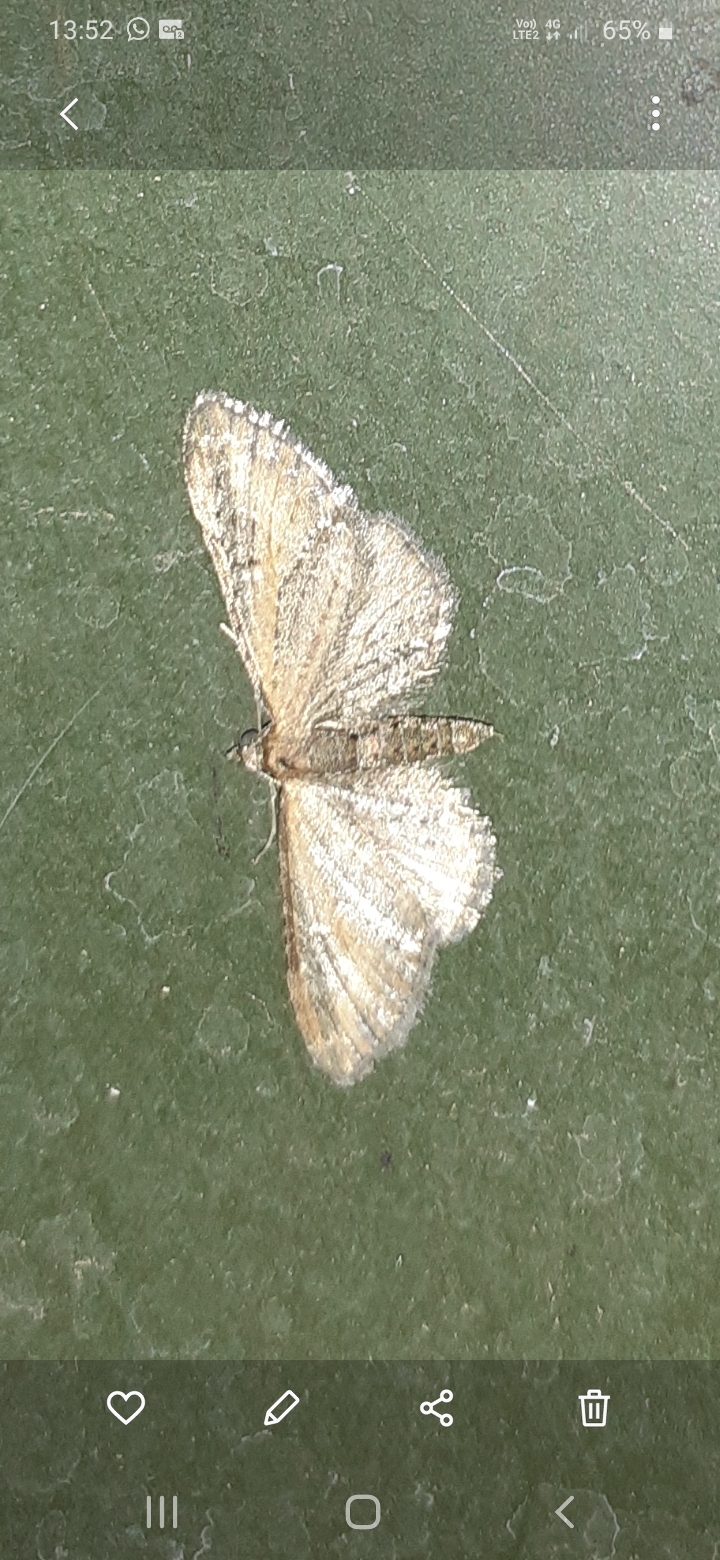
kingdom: Animalia
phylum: Arthropoda
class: Insecta
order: Lepidoptera
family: Geometridae
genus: Eupithecia
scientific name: Eupithecia vulgata
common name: Common pug
